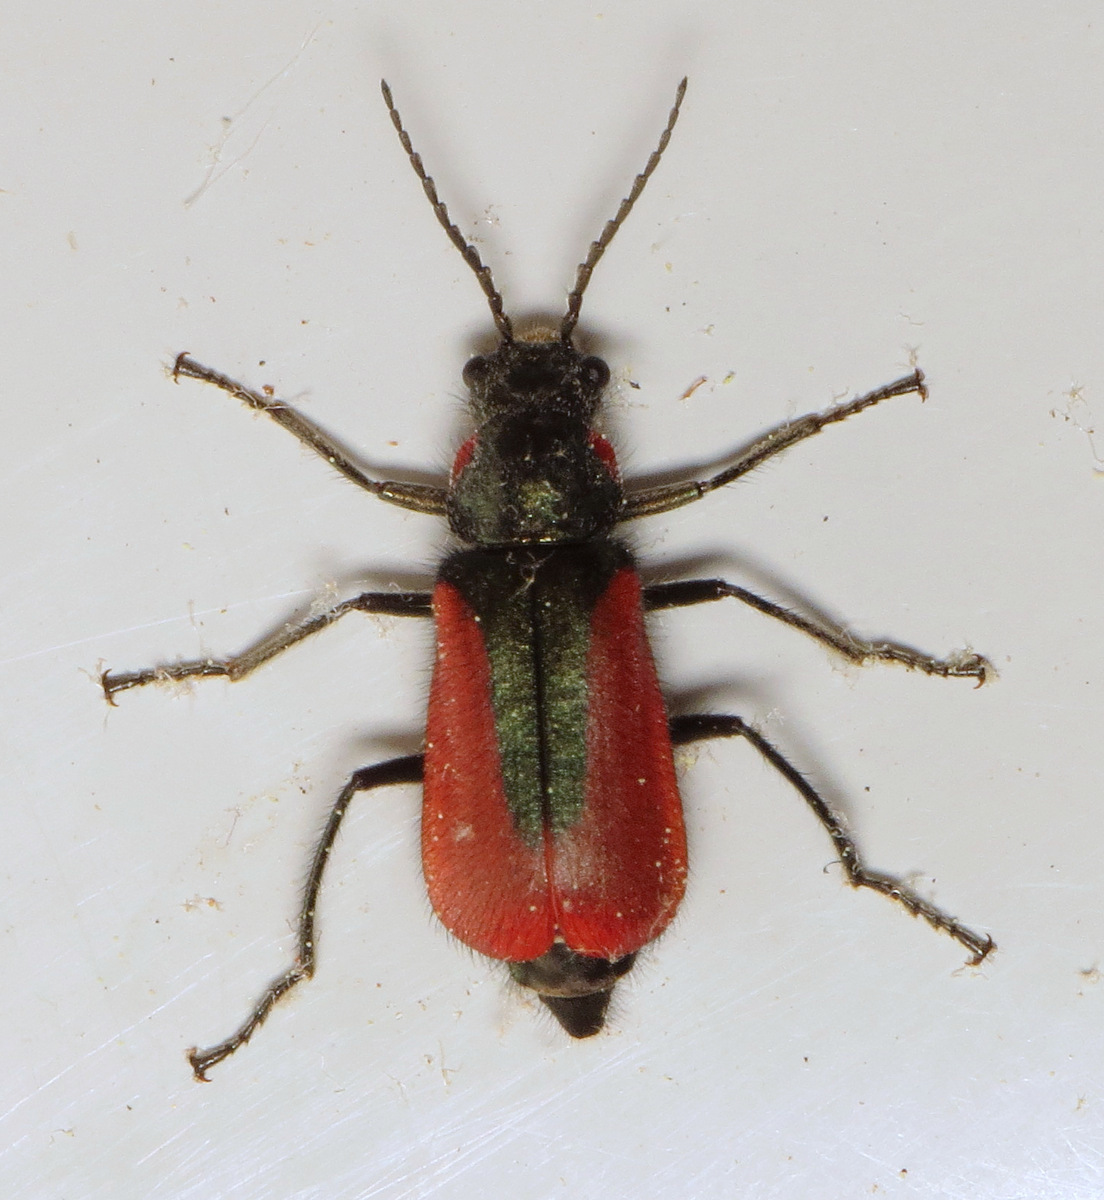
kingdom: Animalia
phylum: Arthropoda
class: Insecta
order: Coleoptera
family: Melyridae
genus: Malachius
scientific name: Malachius aeneus
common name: Scarlet malachite beetle
